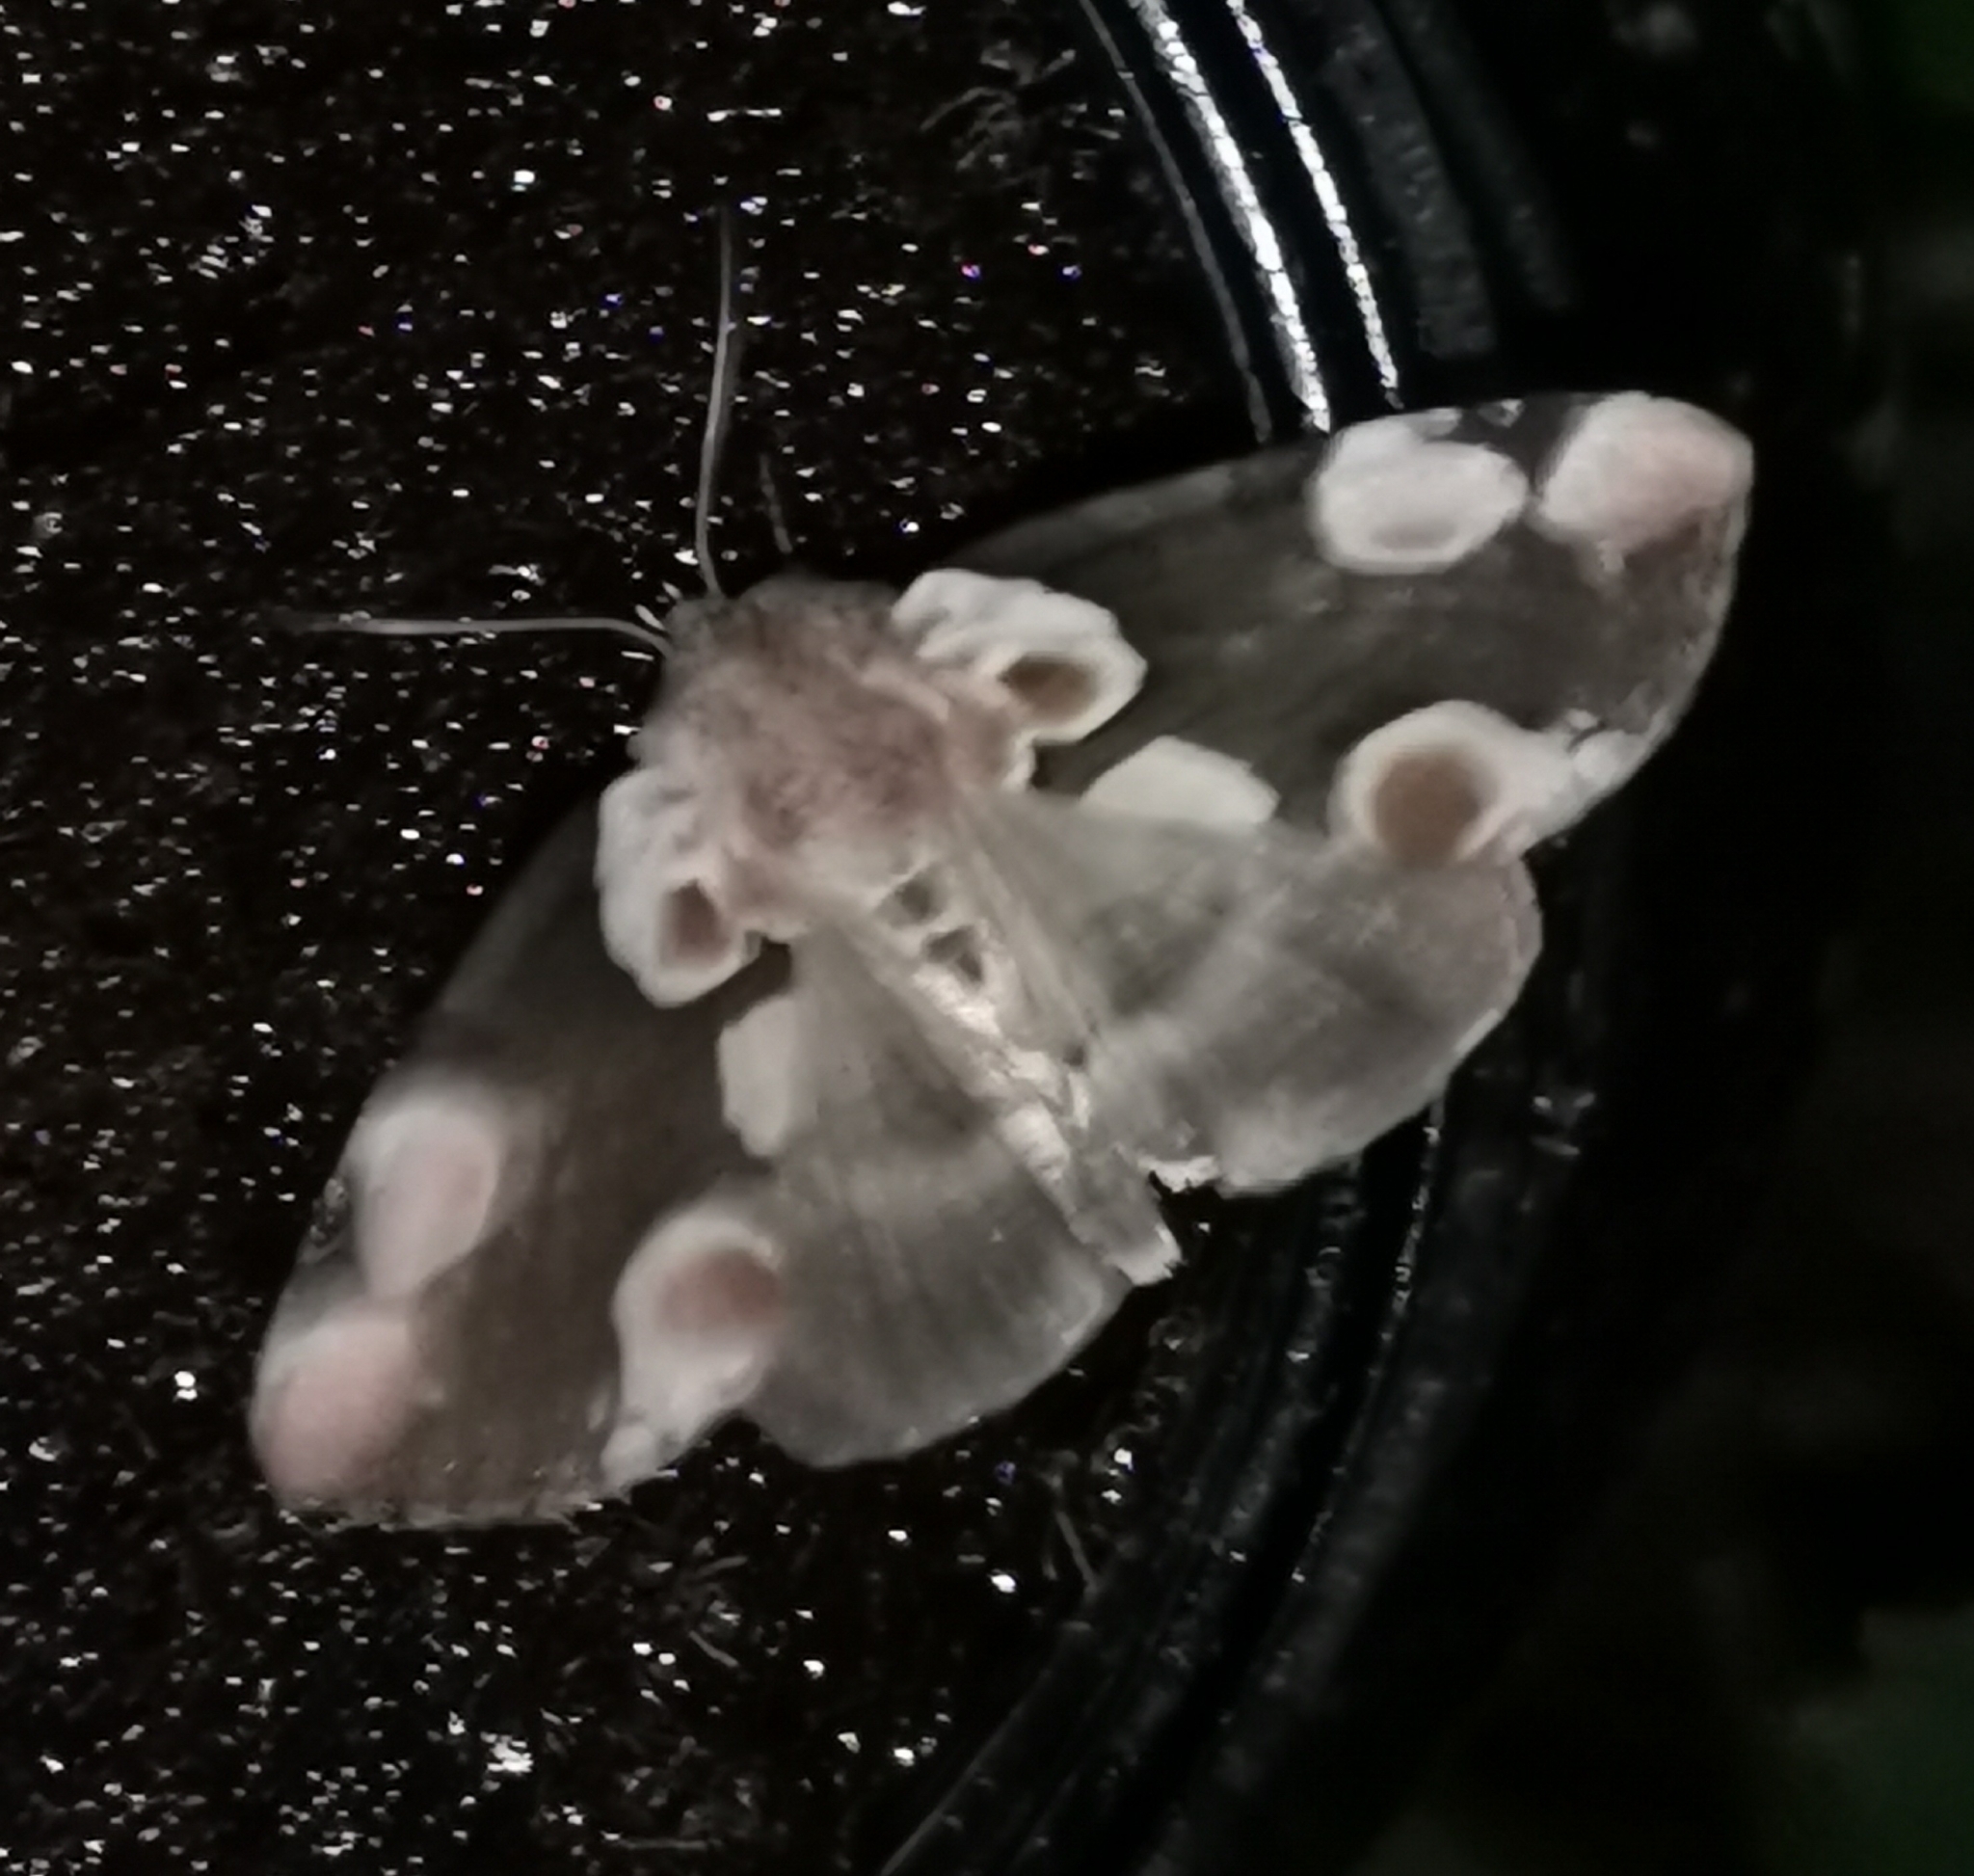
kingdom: Animalia
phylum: Arthropoda
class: Insecta
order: Lepidoptera
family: Drepanidae
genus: Thyatira
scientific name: Thyatira batis
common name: Peach blossom
